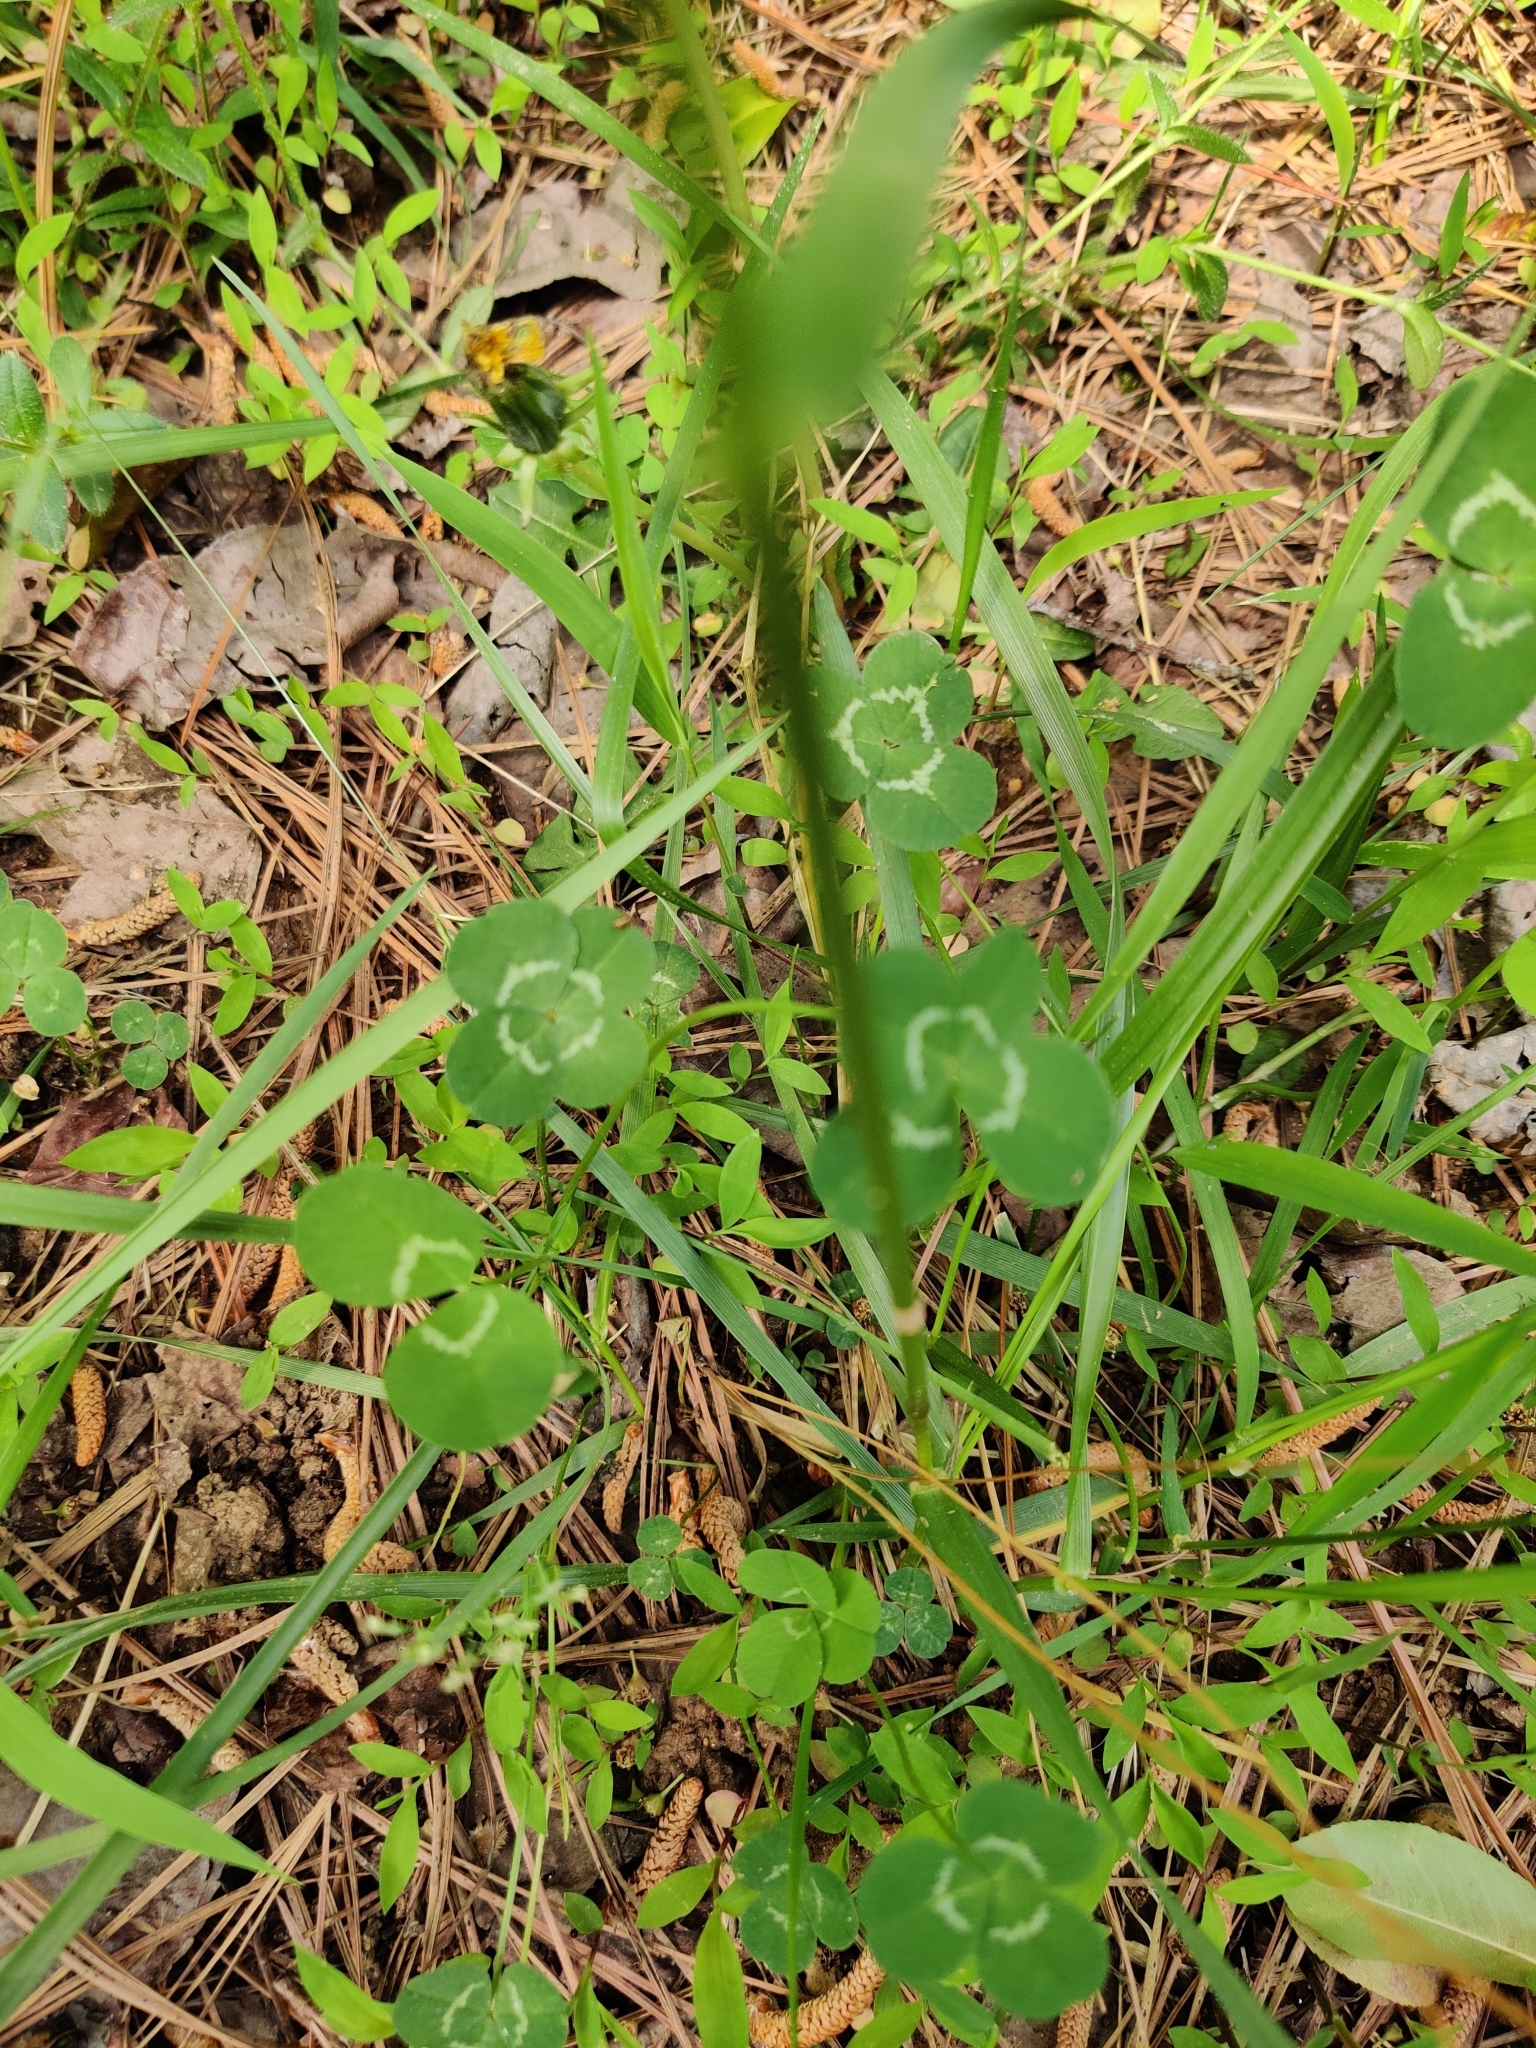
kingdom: Plantae
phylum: Tracheophyta
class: Magnoliopsida
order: Fabales
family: Fabaceae
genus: Trifolium
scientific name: Trifolium repens
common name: White clover
